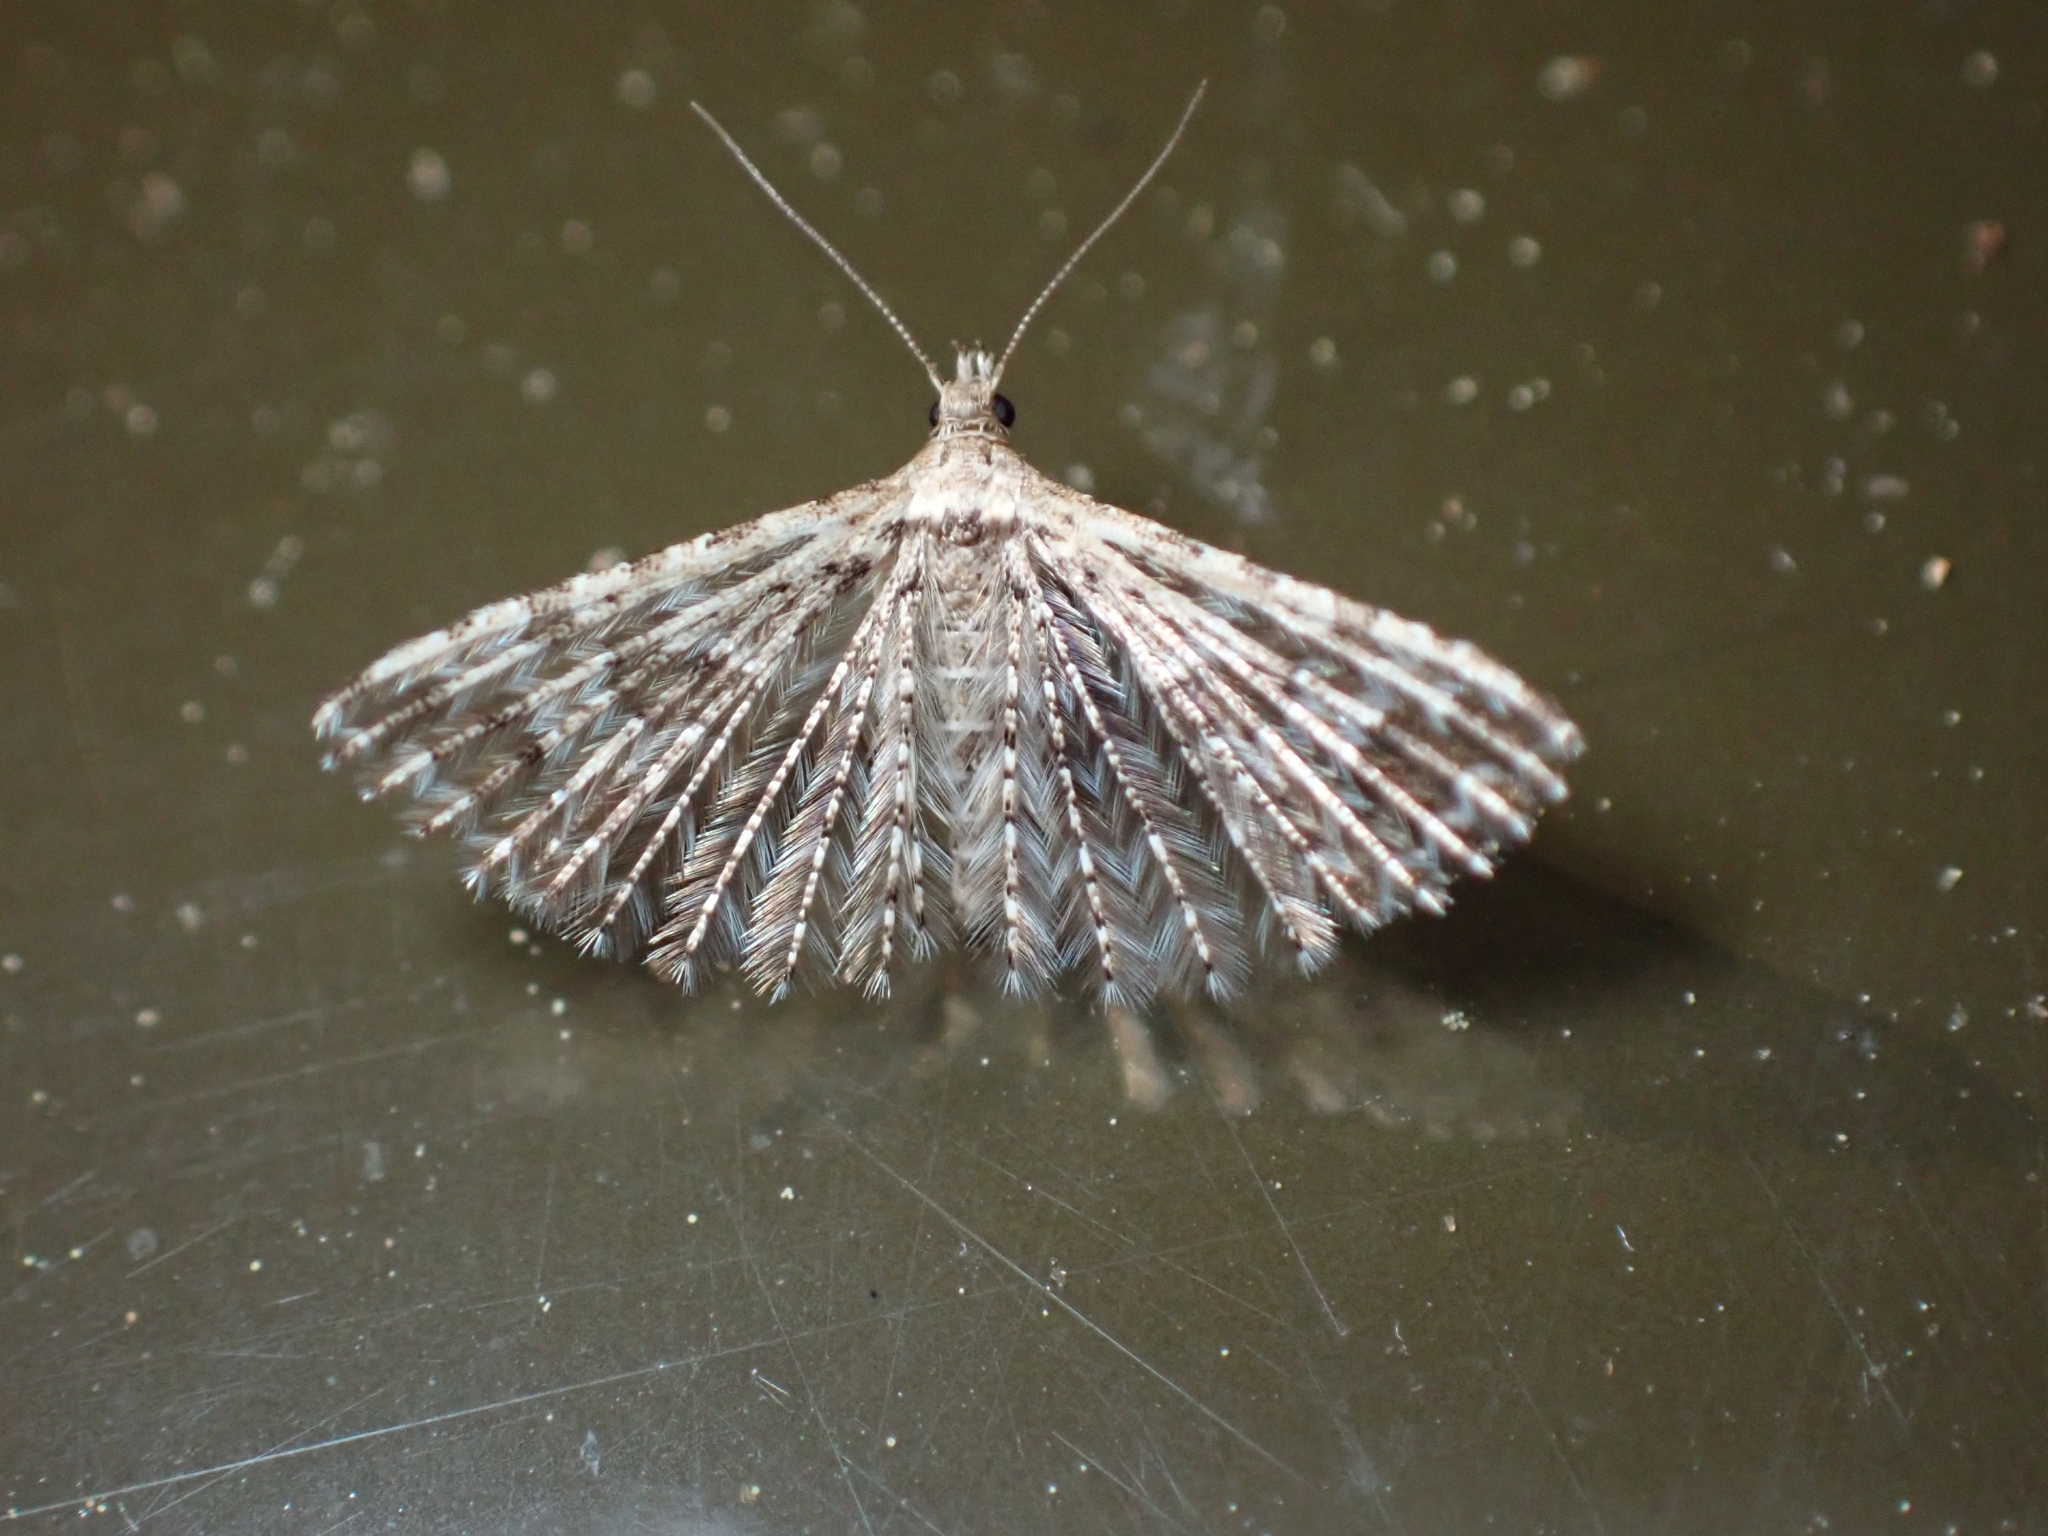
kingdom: Animalia
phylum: Arthropoda
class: Insecta
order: Lepidoptera
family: Alucitidae
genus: Alucita
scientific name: Alucita montana
